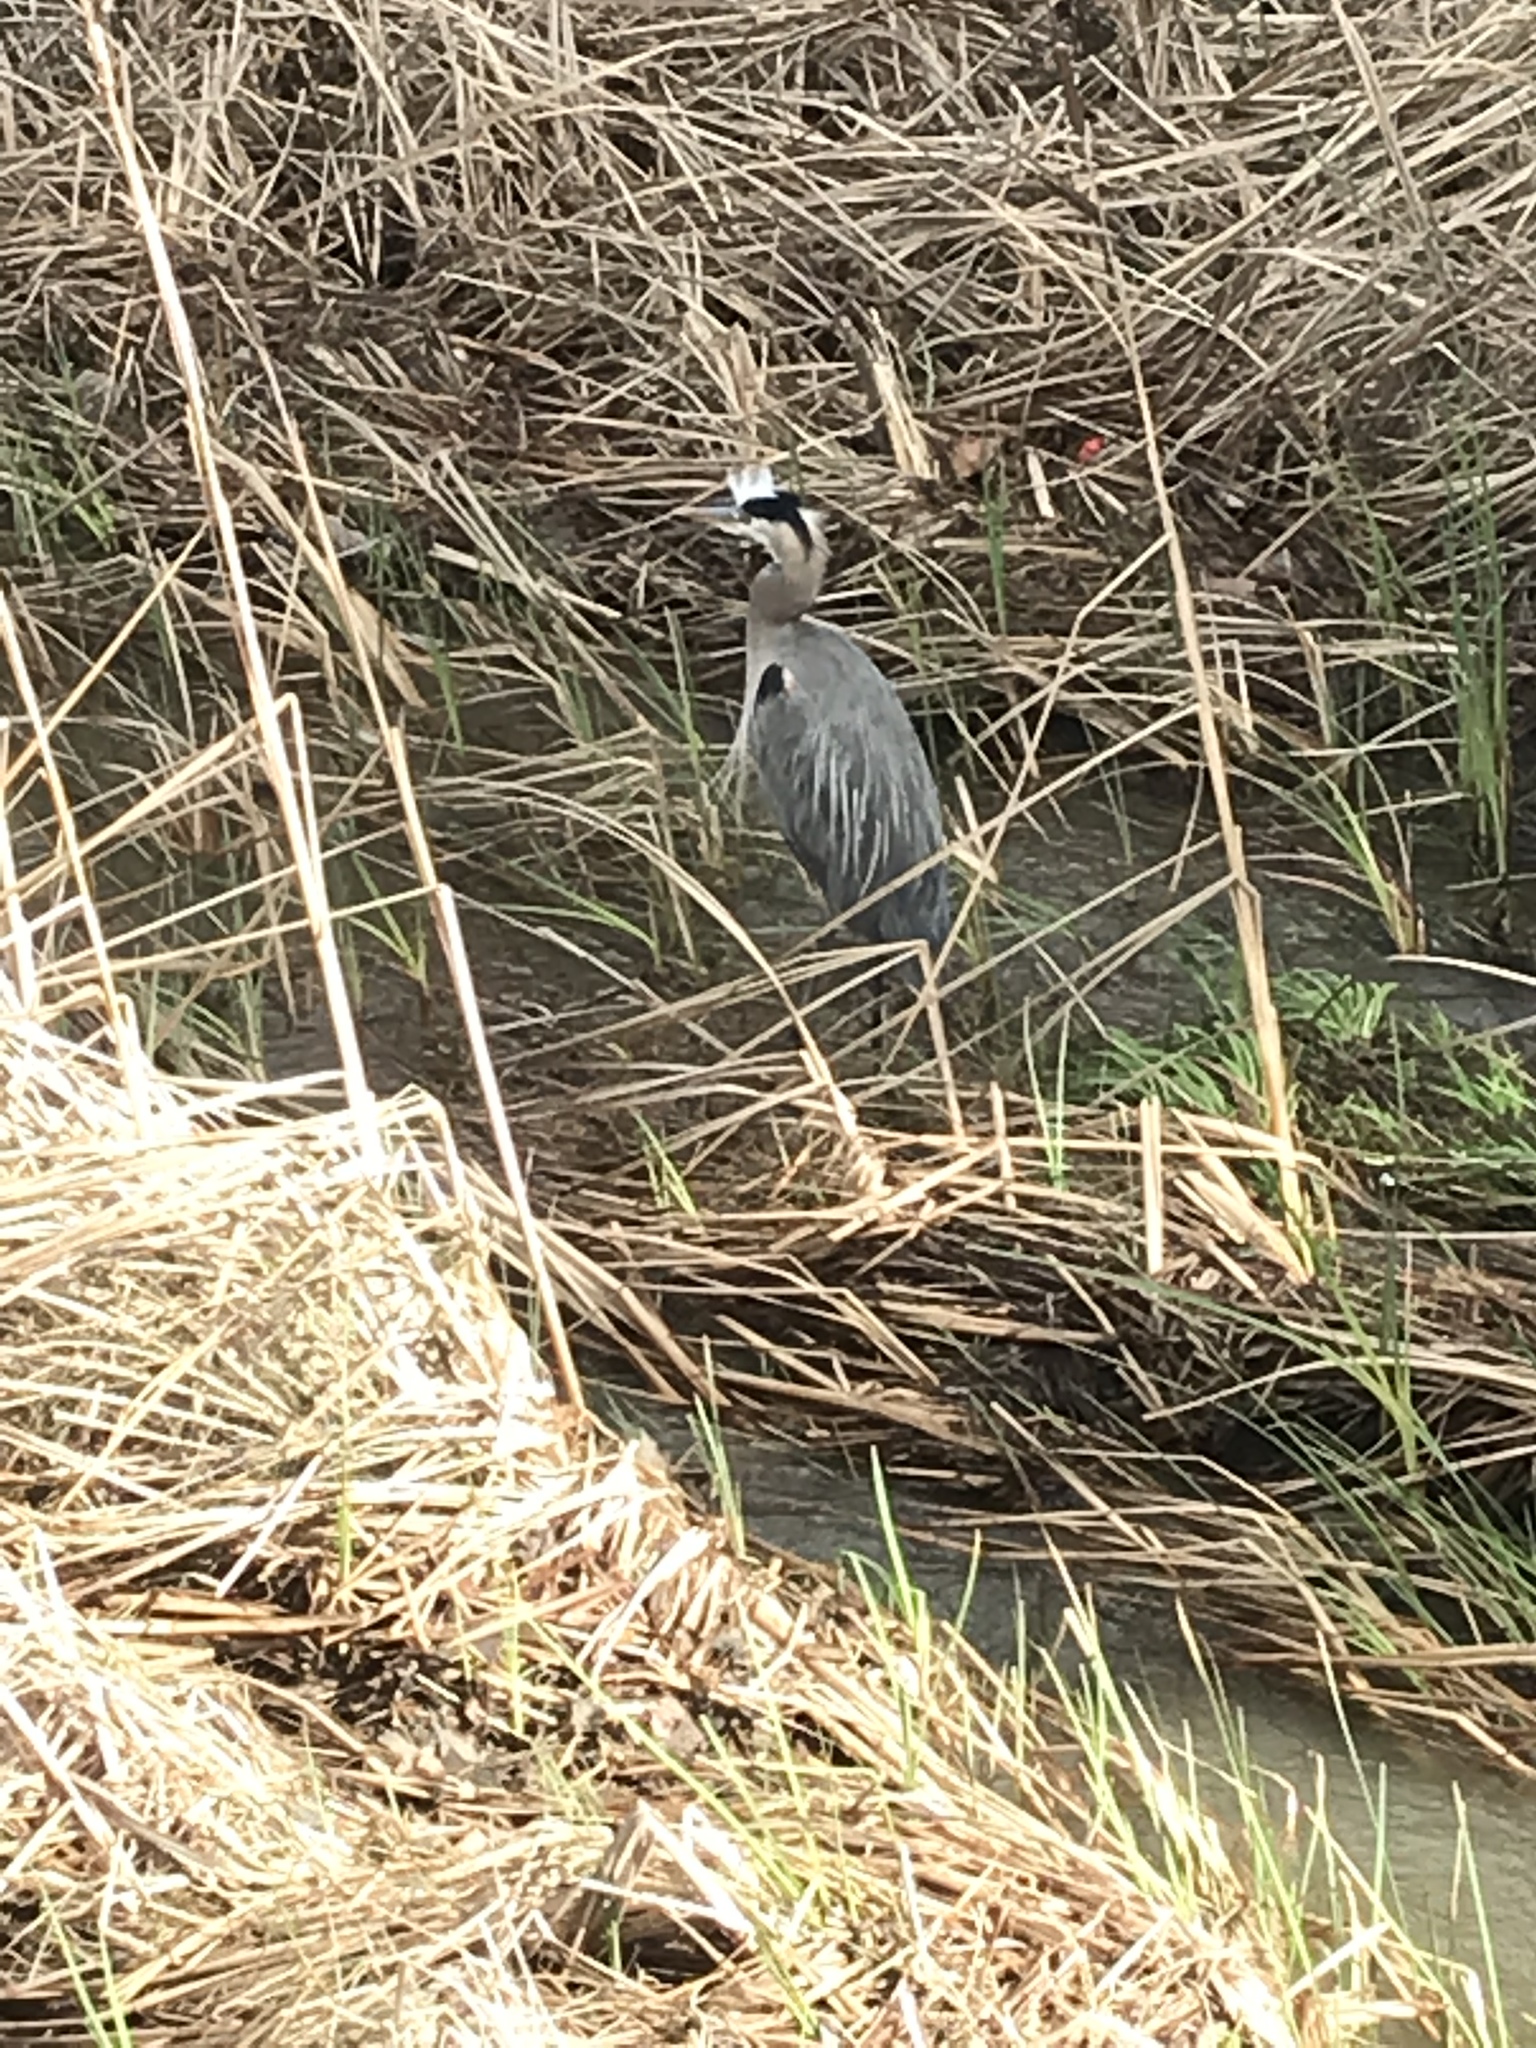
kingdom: Animalia
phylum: Chordata
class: Aves
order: Pelecaniformes
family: Ardeidae
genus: Ardea
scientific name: Ardea herodias
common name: Great blue heron
